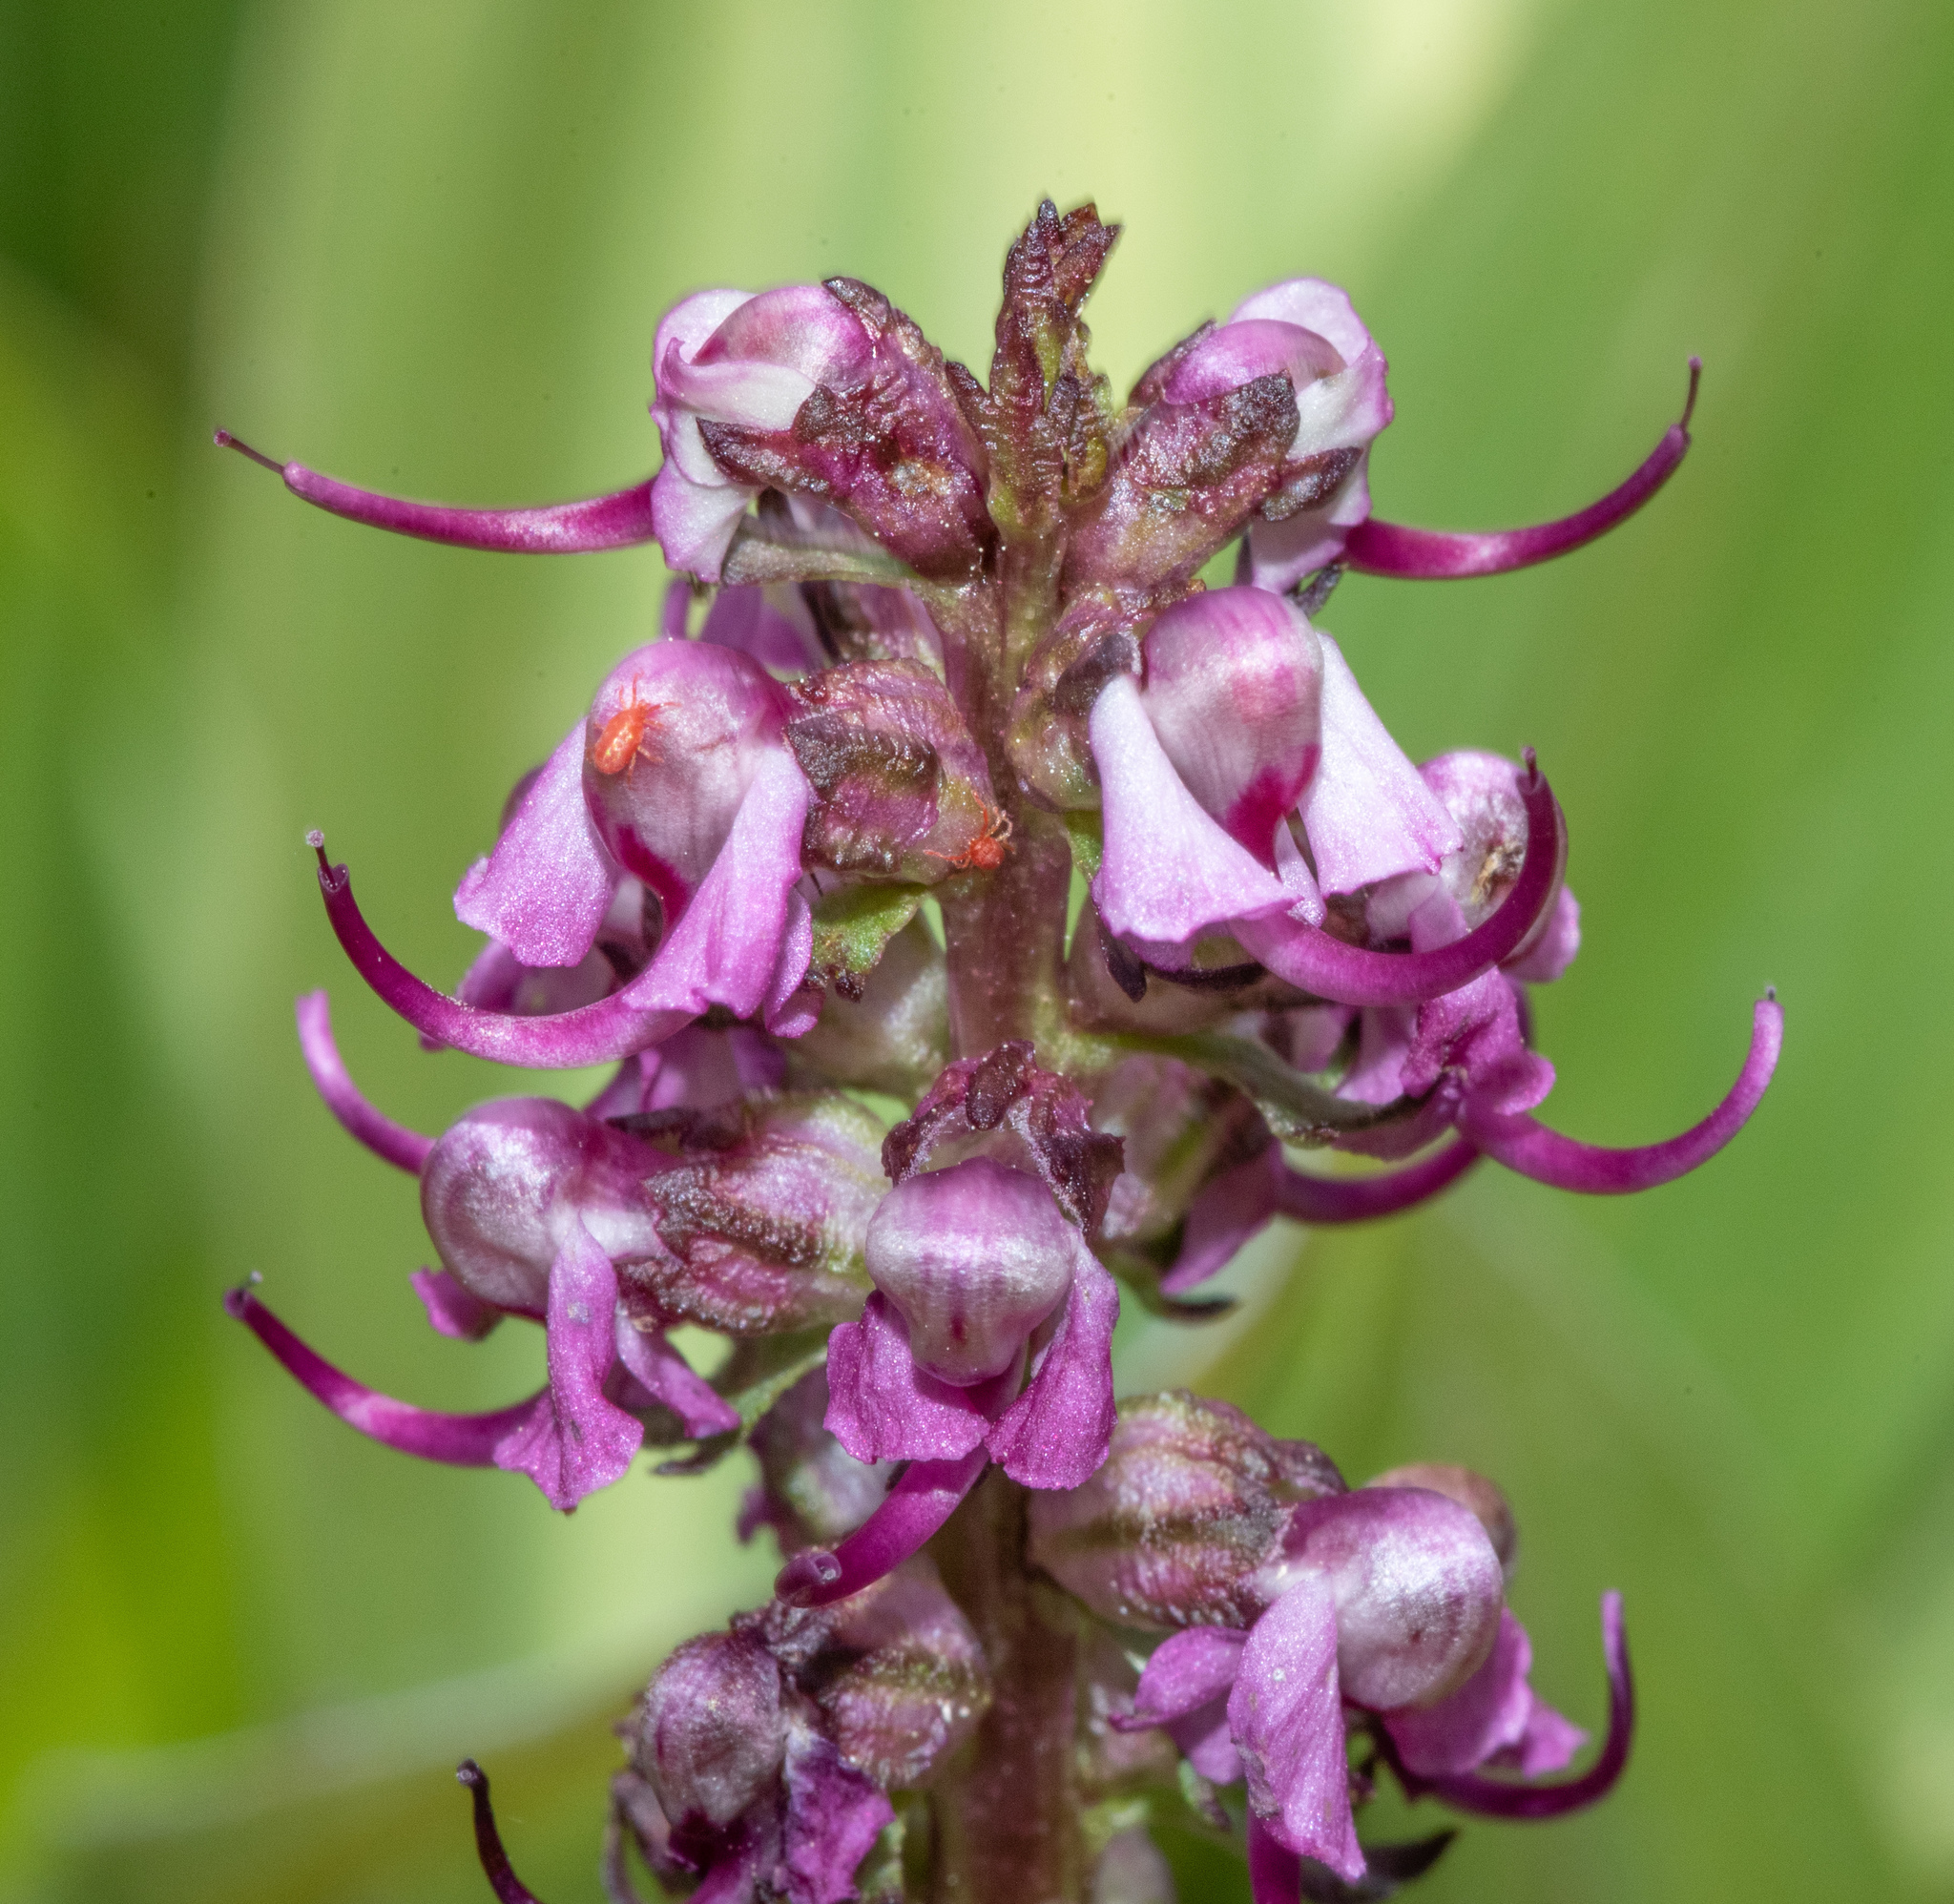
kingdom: Plantae
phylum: Tracheophyta
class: Magnoliopsida
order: Lamiales
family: Orobanchaceae
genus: Pedicularis
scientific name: Pedicularis groenlandica
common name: Elephant's-head
